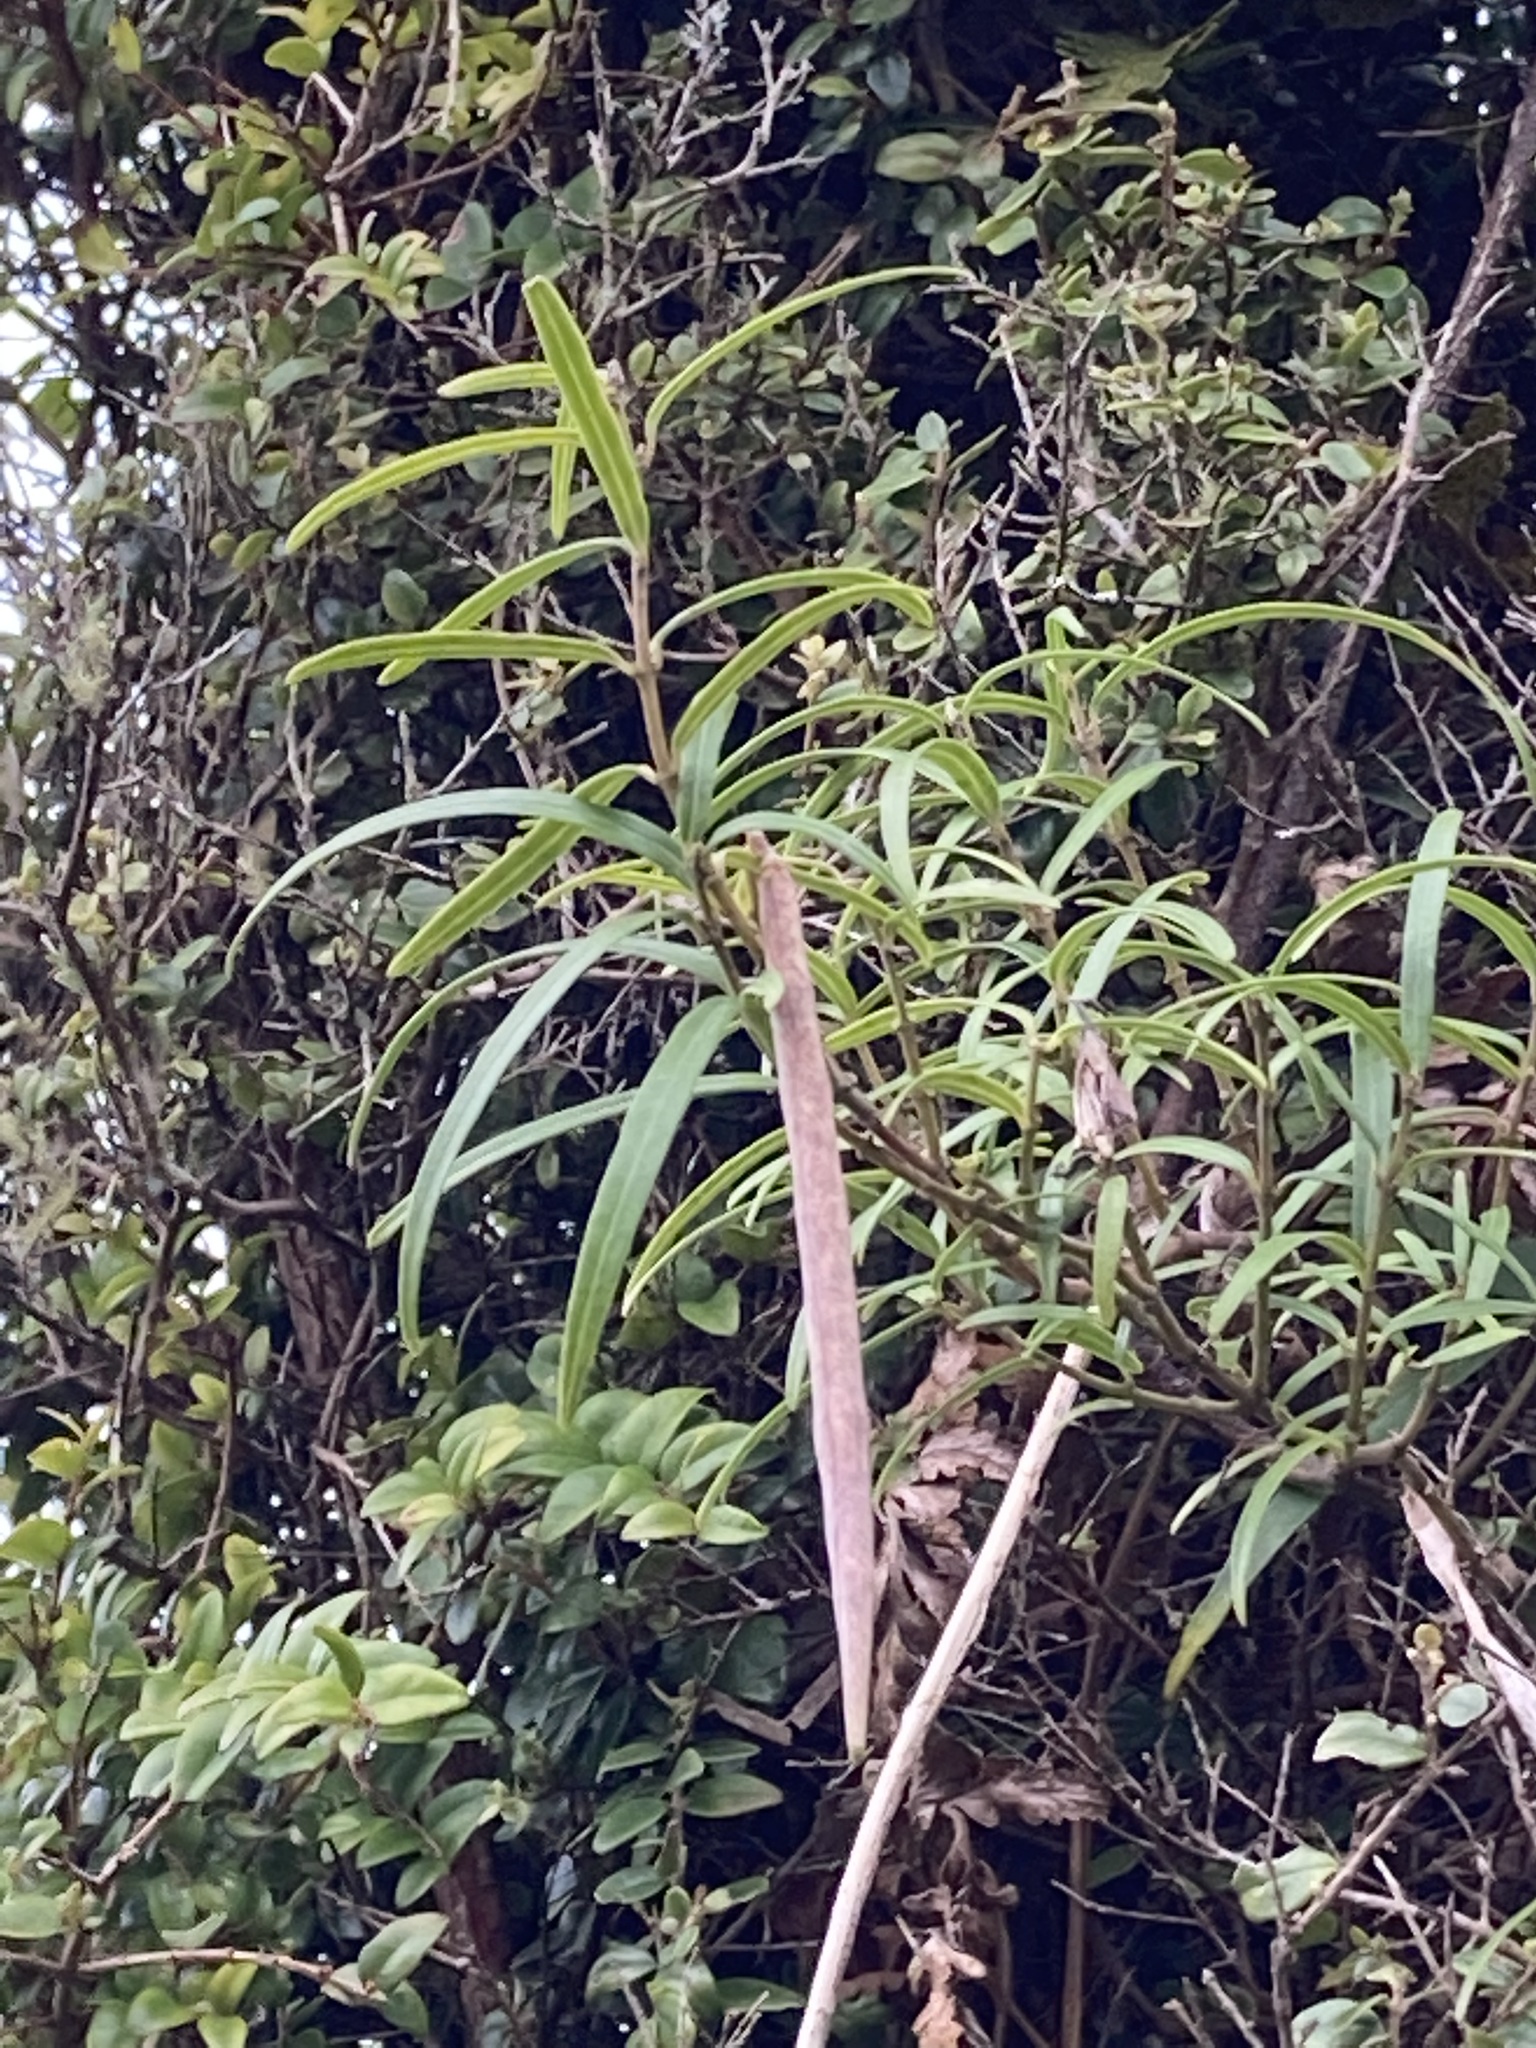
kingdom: Plantae
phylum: Tracheophyta
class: Magnoliopsida
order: Gentianales
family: Apocynaceae
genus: Parsonsia
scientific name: Parsonsia capsularis
